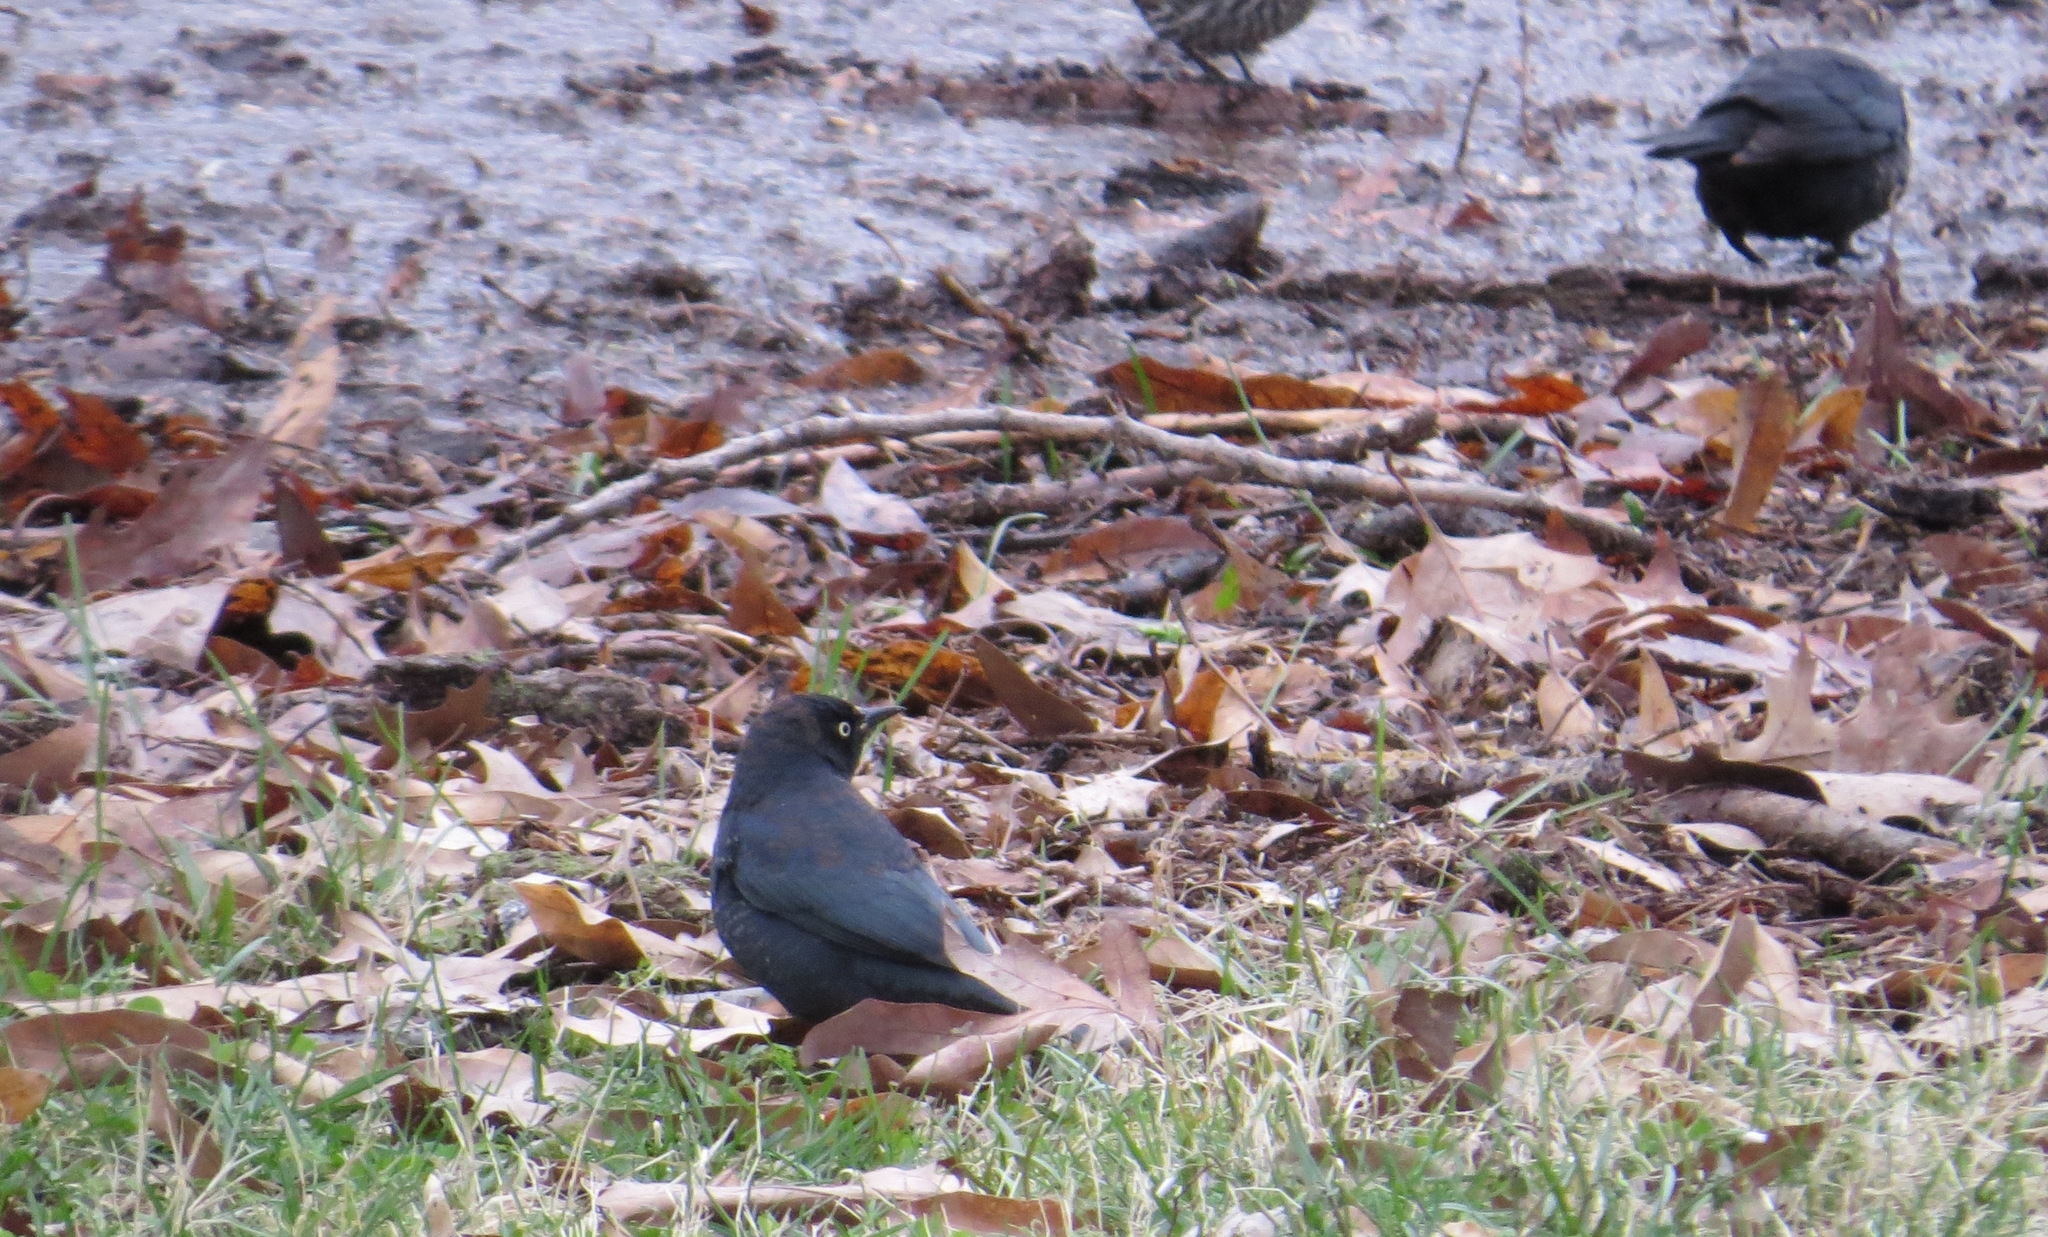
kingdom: Animalia
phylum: Chordata
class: Aves
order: Passeriformes
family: Icteridae
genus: Euphagus
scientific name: Euphagus carolinus
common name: Rusty blackbird
